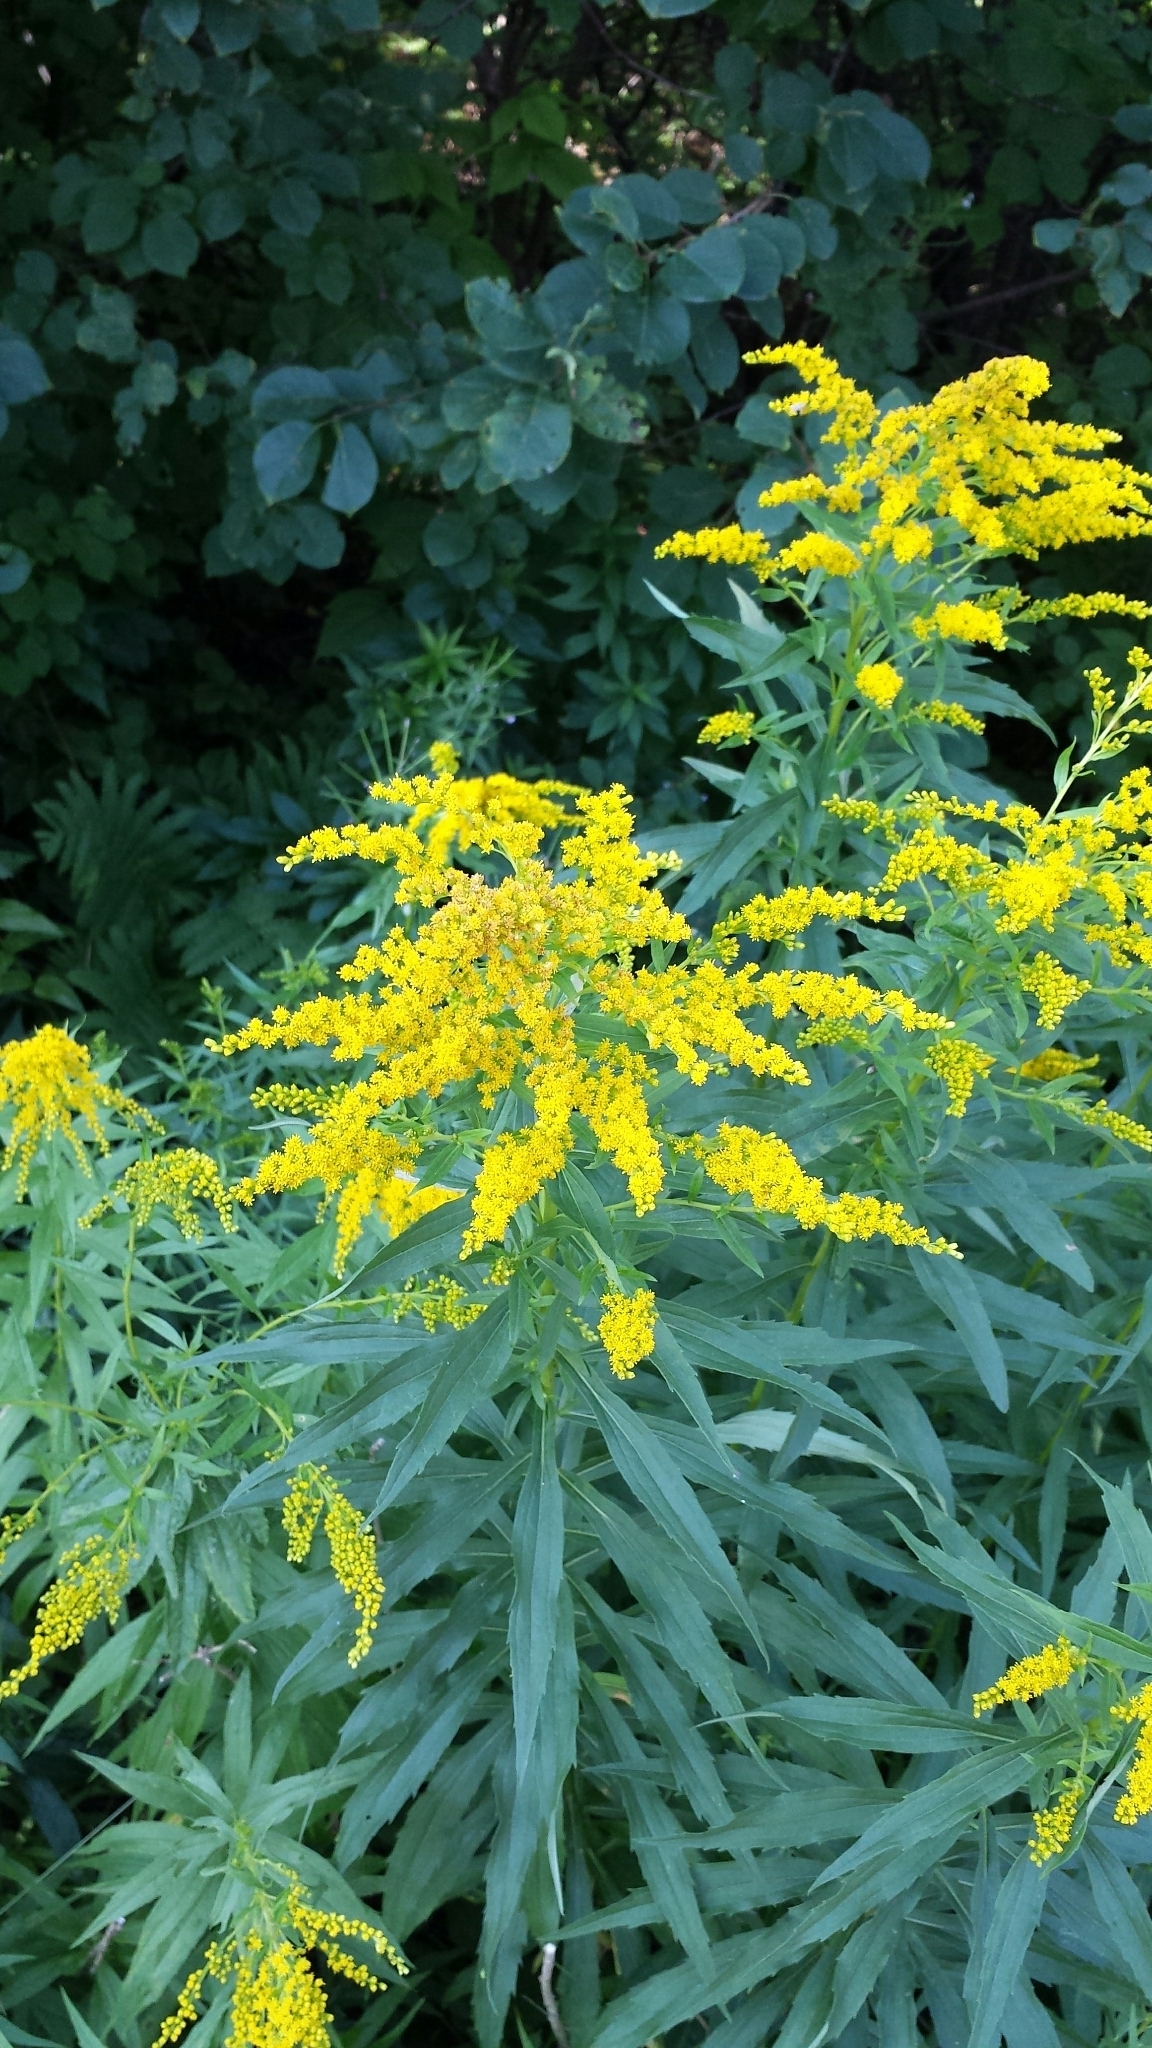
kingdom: Plantae
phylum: Tracheophyta
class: Magnoliopsida
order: Asterales
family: Asteraceae
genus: Solidago
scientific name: Solidago canadensis
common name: Canada goldenrod
